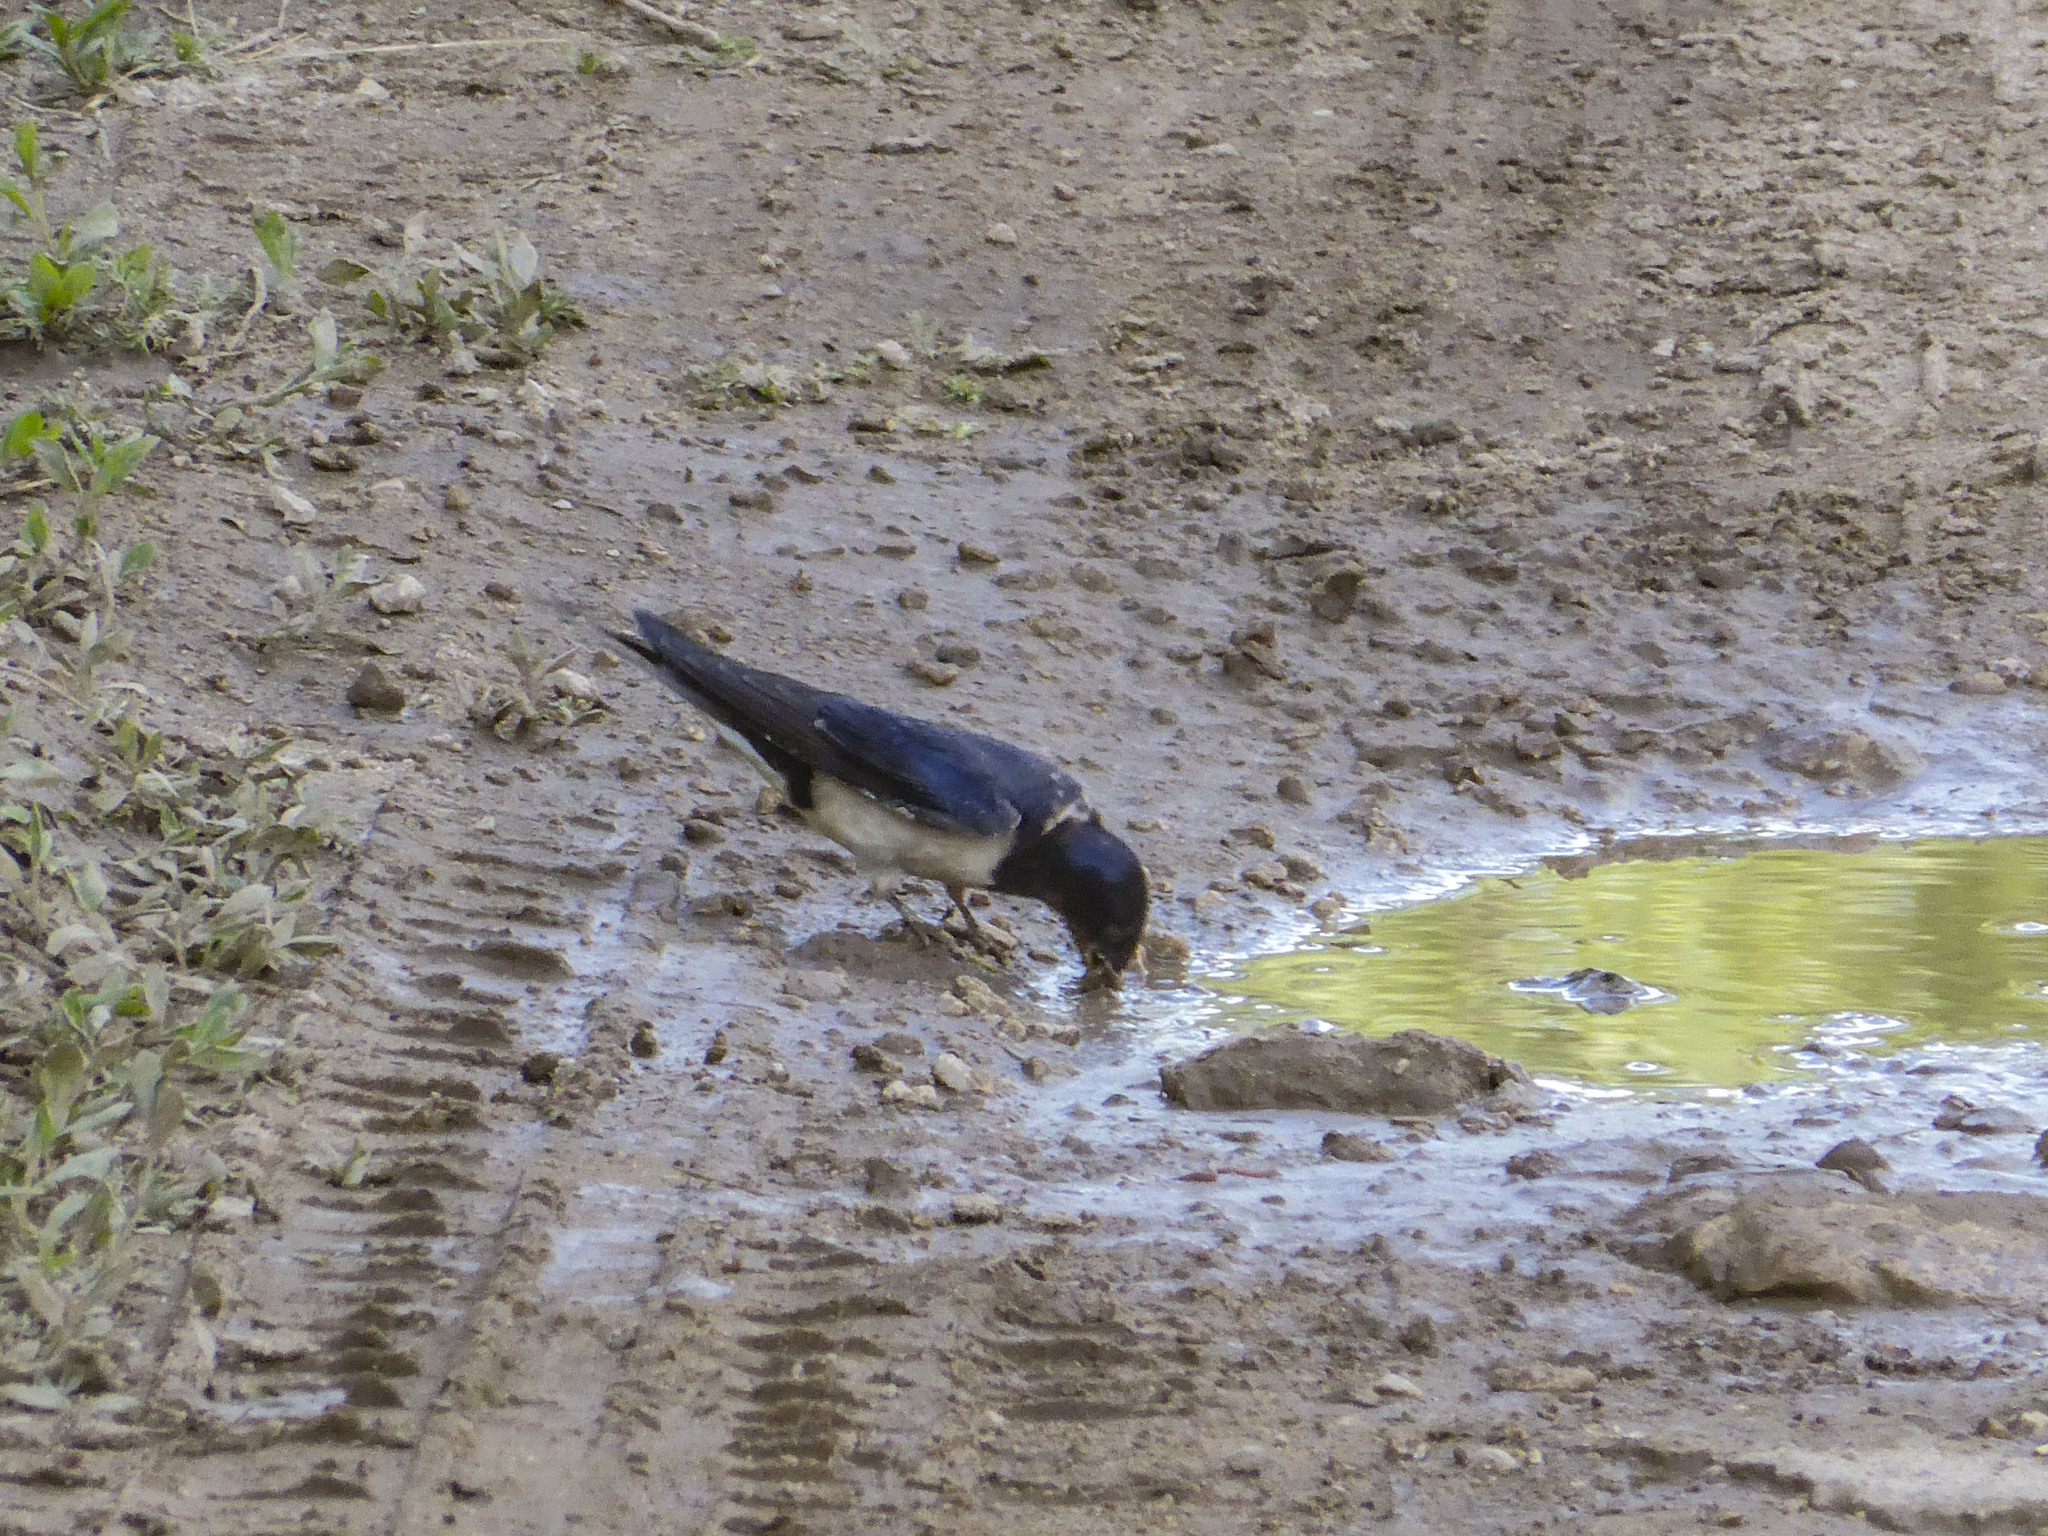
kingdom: Animalia
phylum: Chordata
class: Aves
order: Passeriformes
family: Hirundinidae
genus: Hirundo
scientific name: Hirundo rustica
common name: Barn swallow
